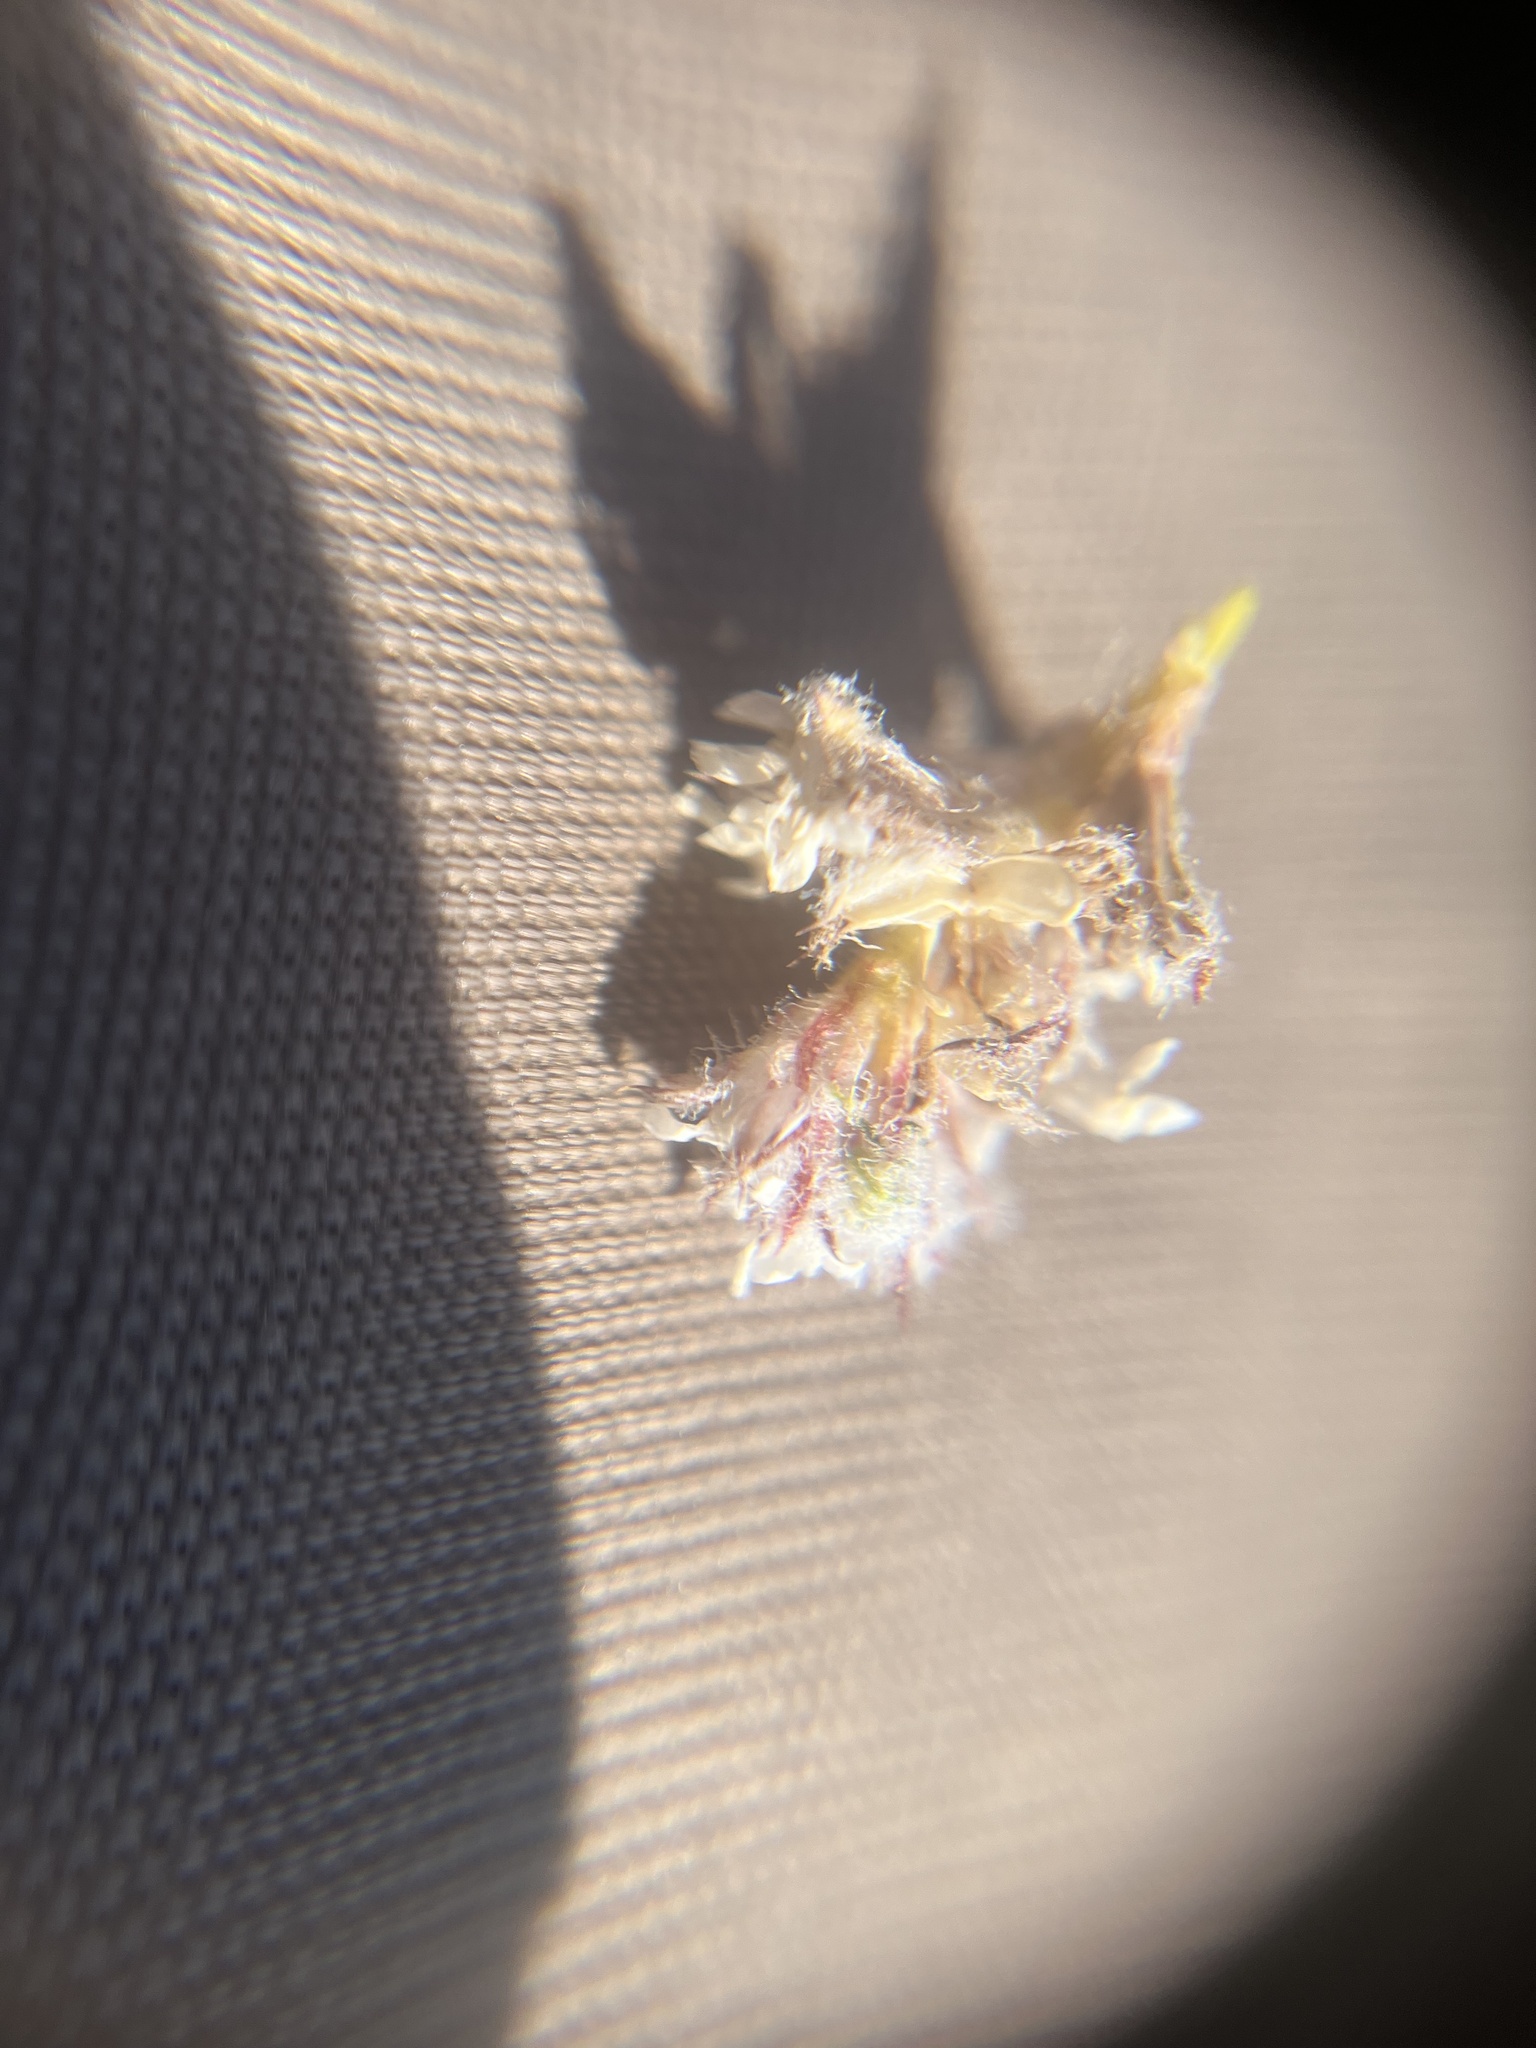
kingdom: Plantae
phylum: Tracheophyta
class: Magnoliopsida
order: Ericales
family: Polemoniaceae
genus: Ipomopsis
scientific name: Ipomopsis congesta
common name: Ball-head gilia
